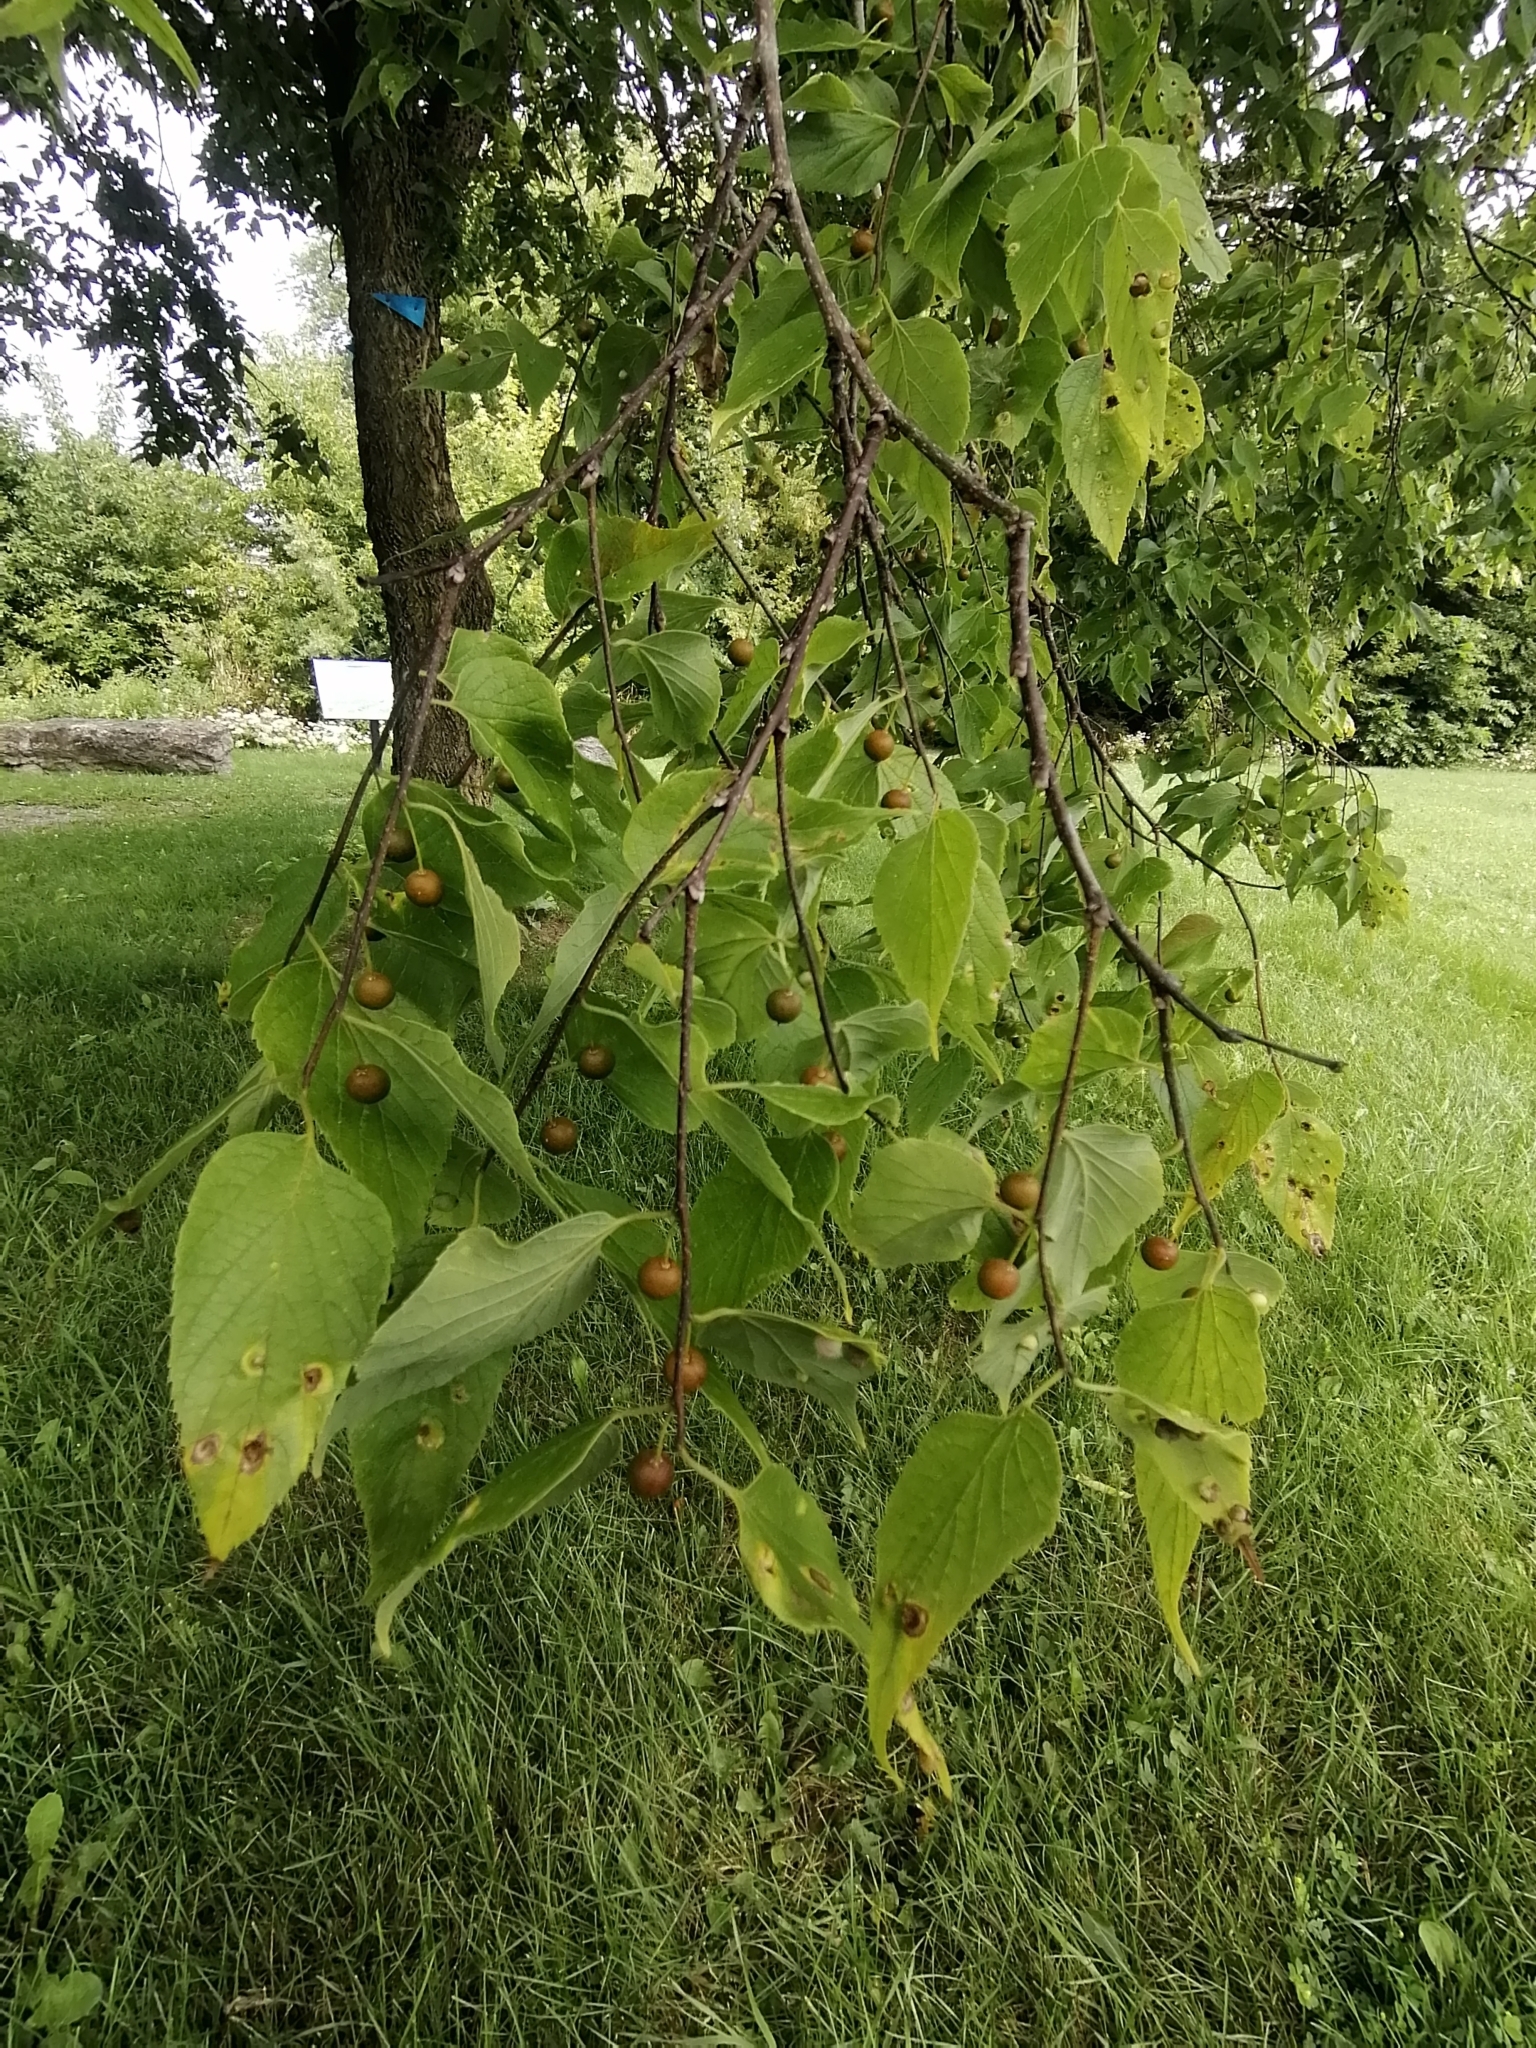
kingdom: Plantae
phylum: Tracheophyta
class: Magnoliopsida
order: Rosales
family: Cannabaceae
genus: Celtis
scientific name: Celtis occidentalis
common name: Common hackberry
